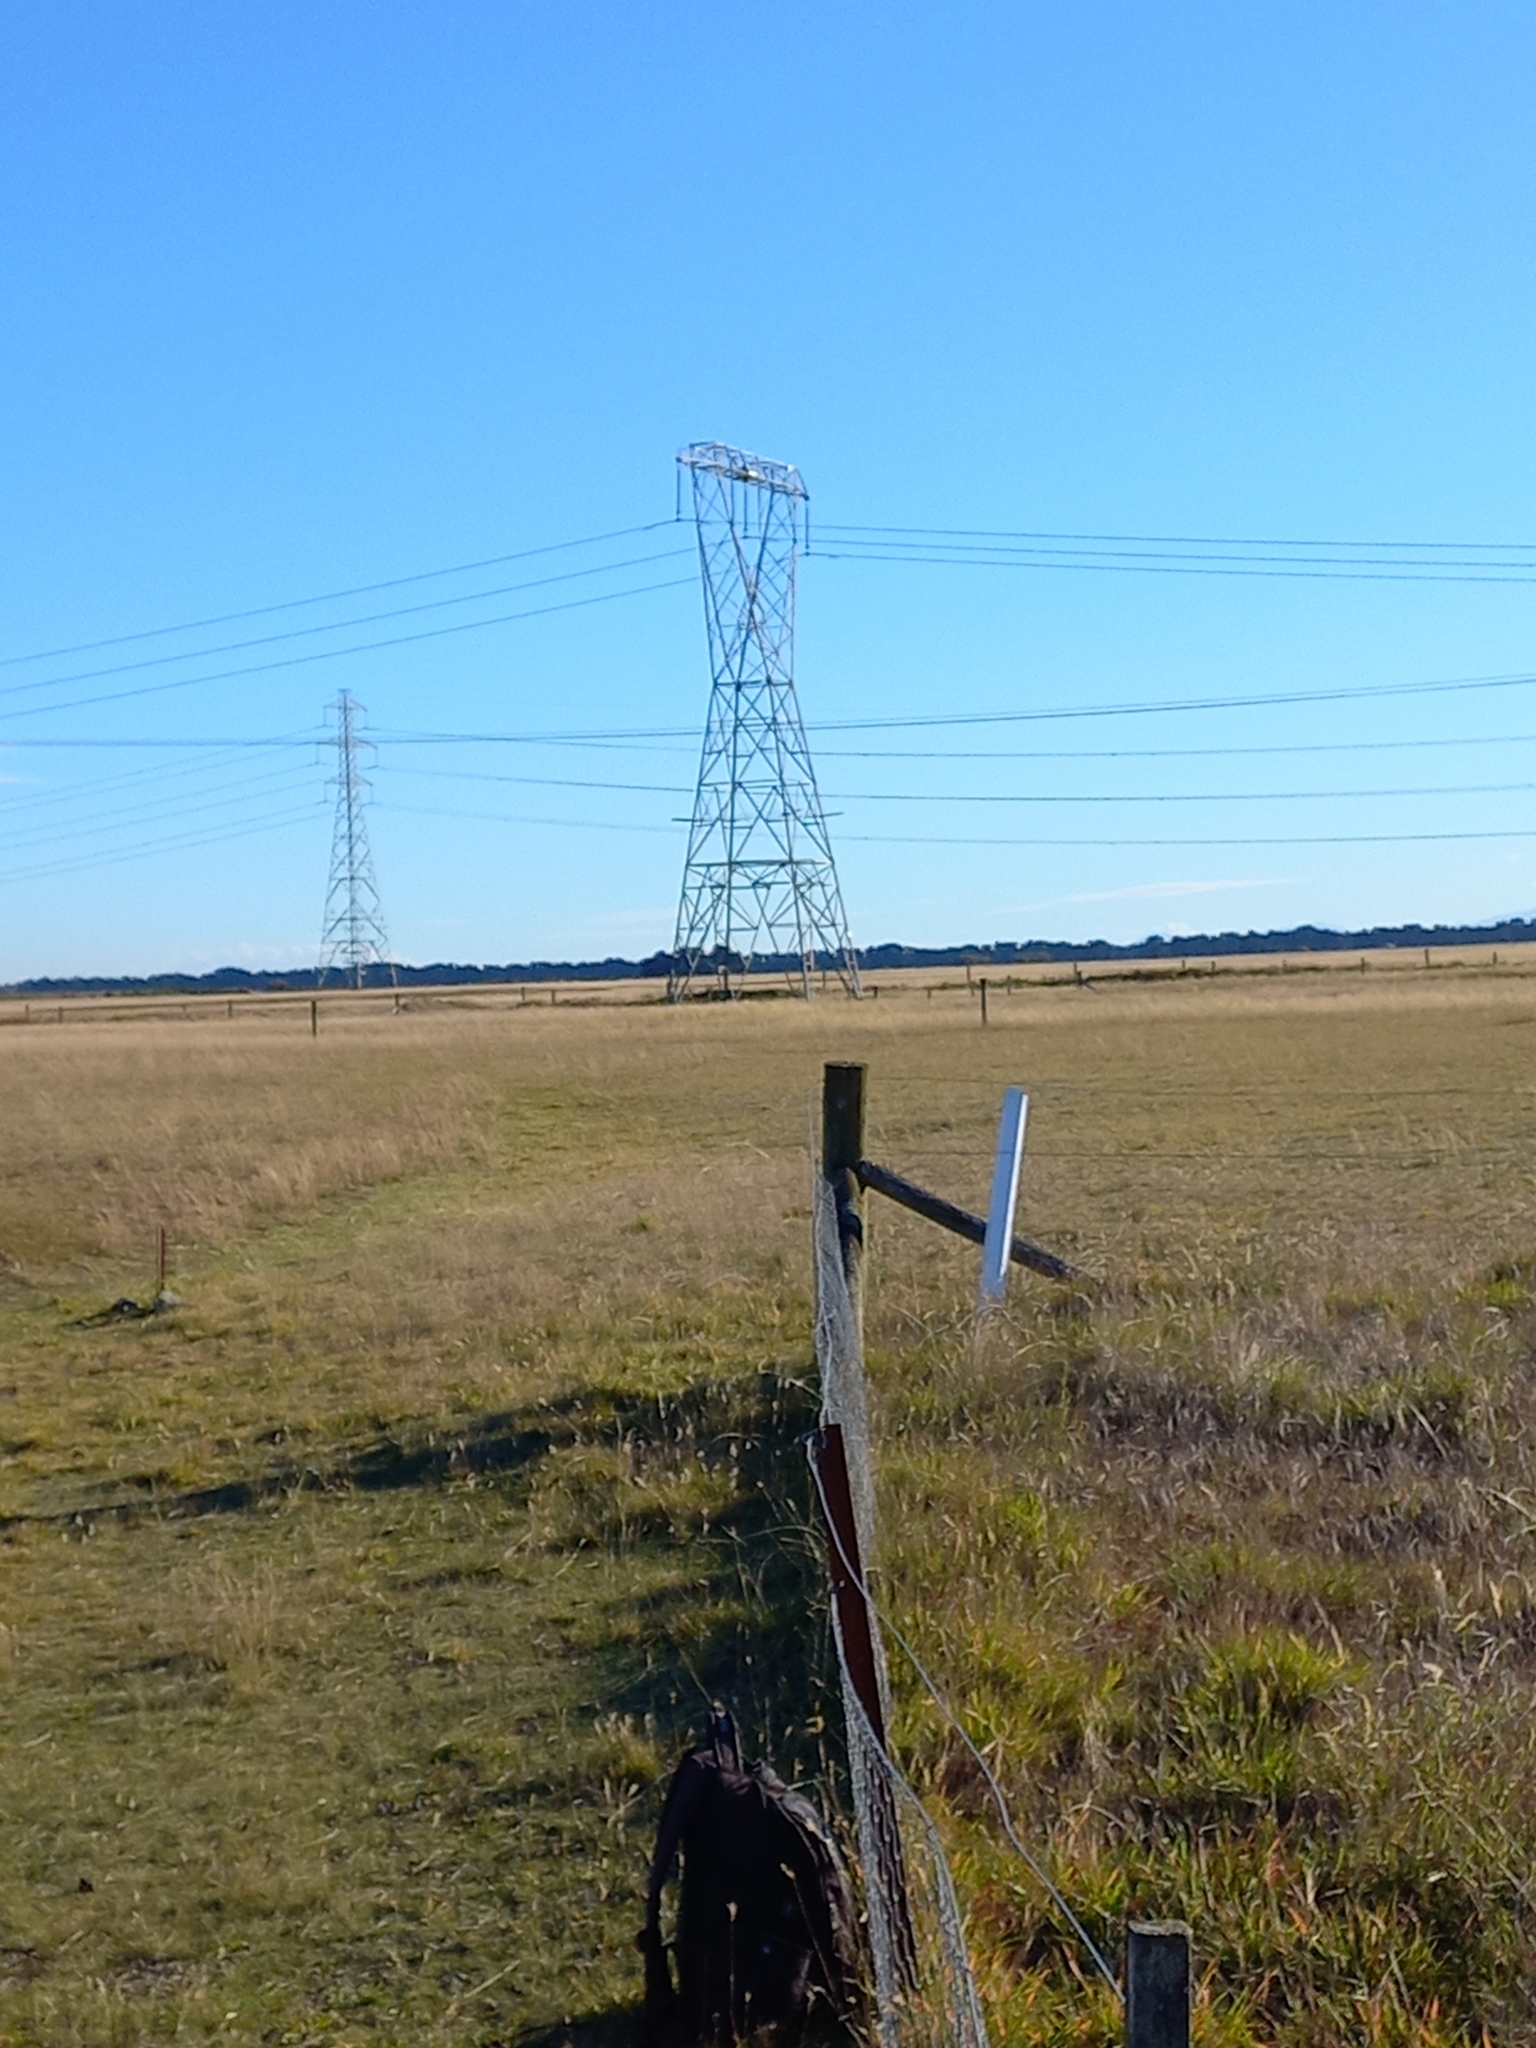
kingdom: Animalia
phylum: Chordata
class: Aves
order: Charadriiformes
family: Charadriidae
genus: Vanellus
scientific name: Vanellus miles
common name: Masked lapwing
